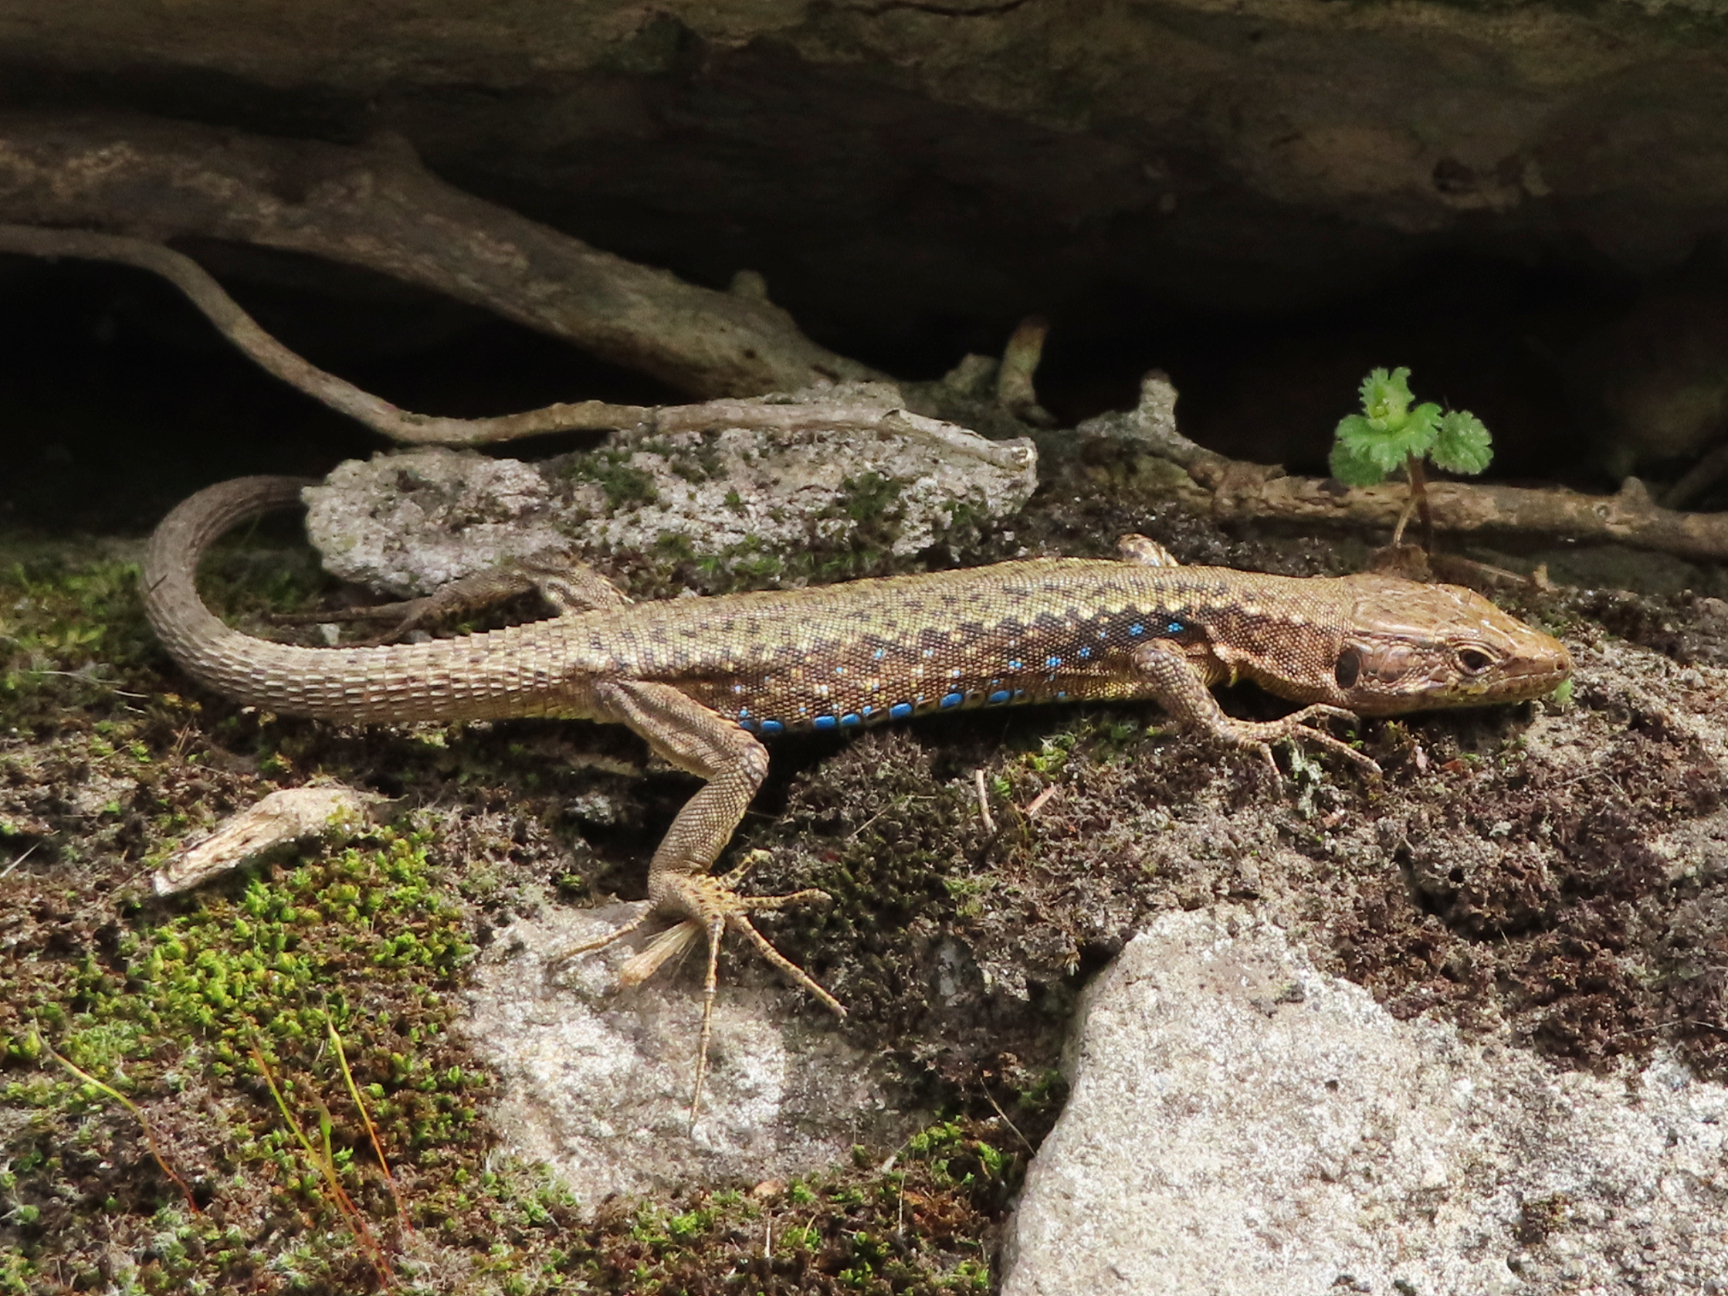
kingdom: Animalia
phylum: Chordata
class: Squamata
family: Lacertidae
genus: Darevskia
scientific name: Darevskia mixta
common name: Ajarian lizard
